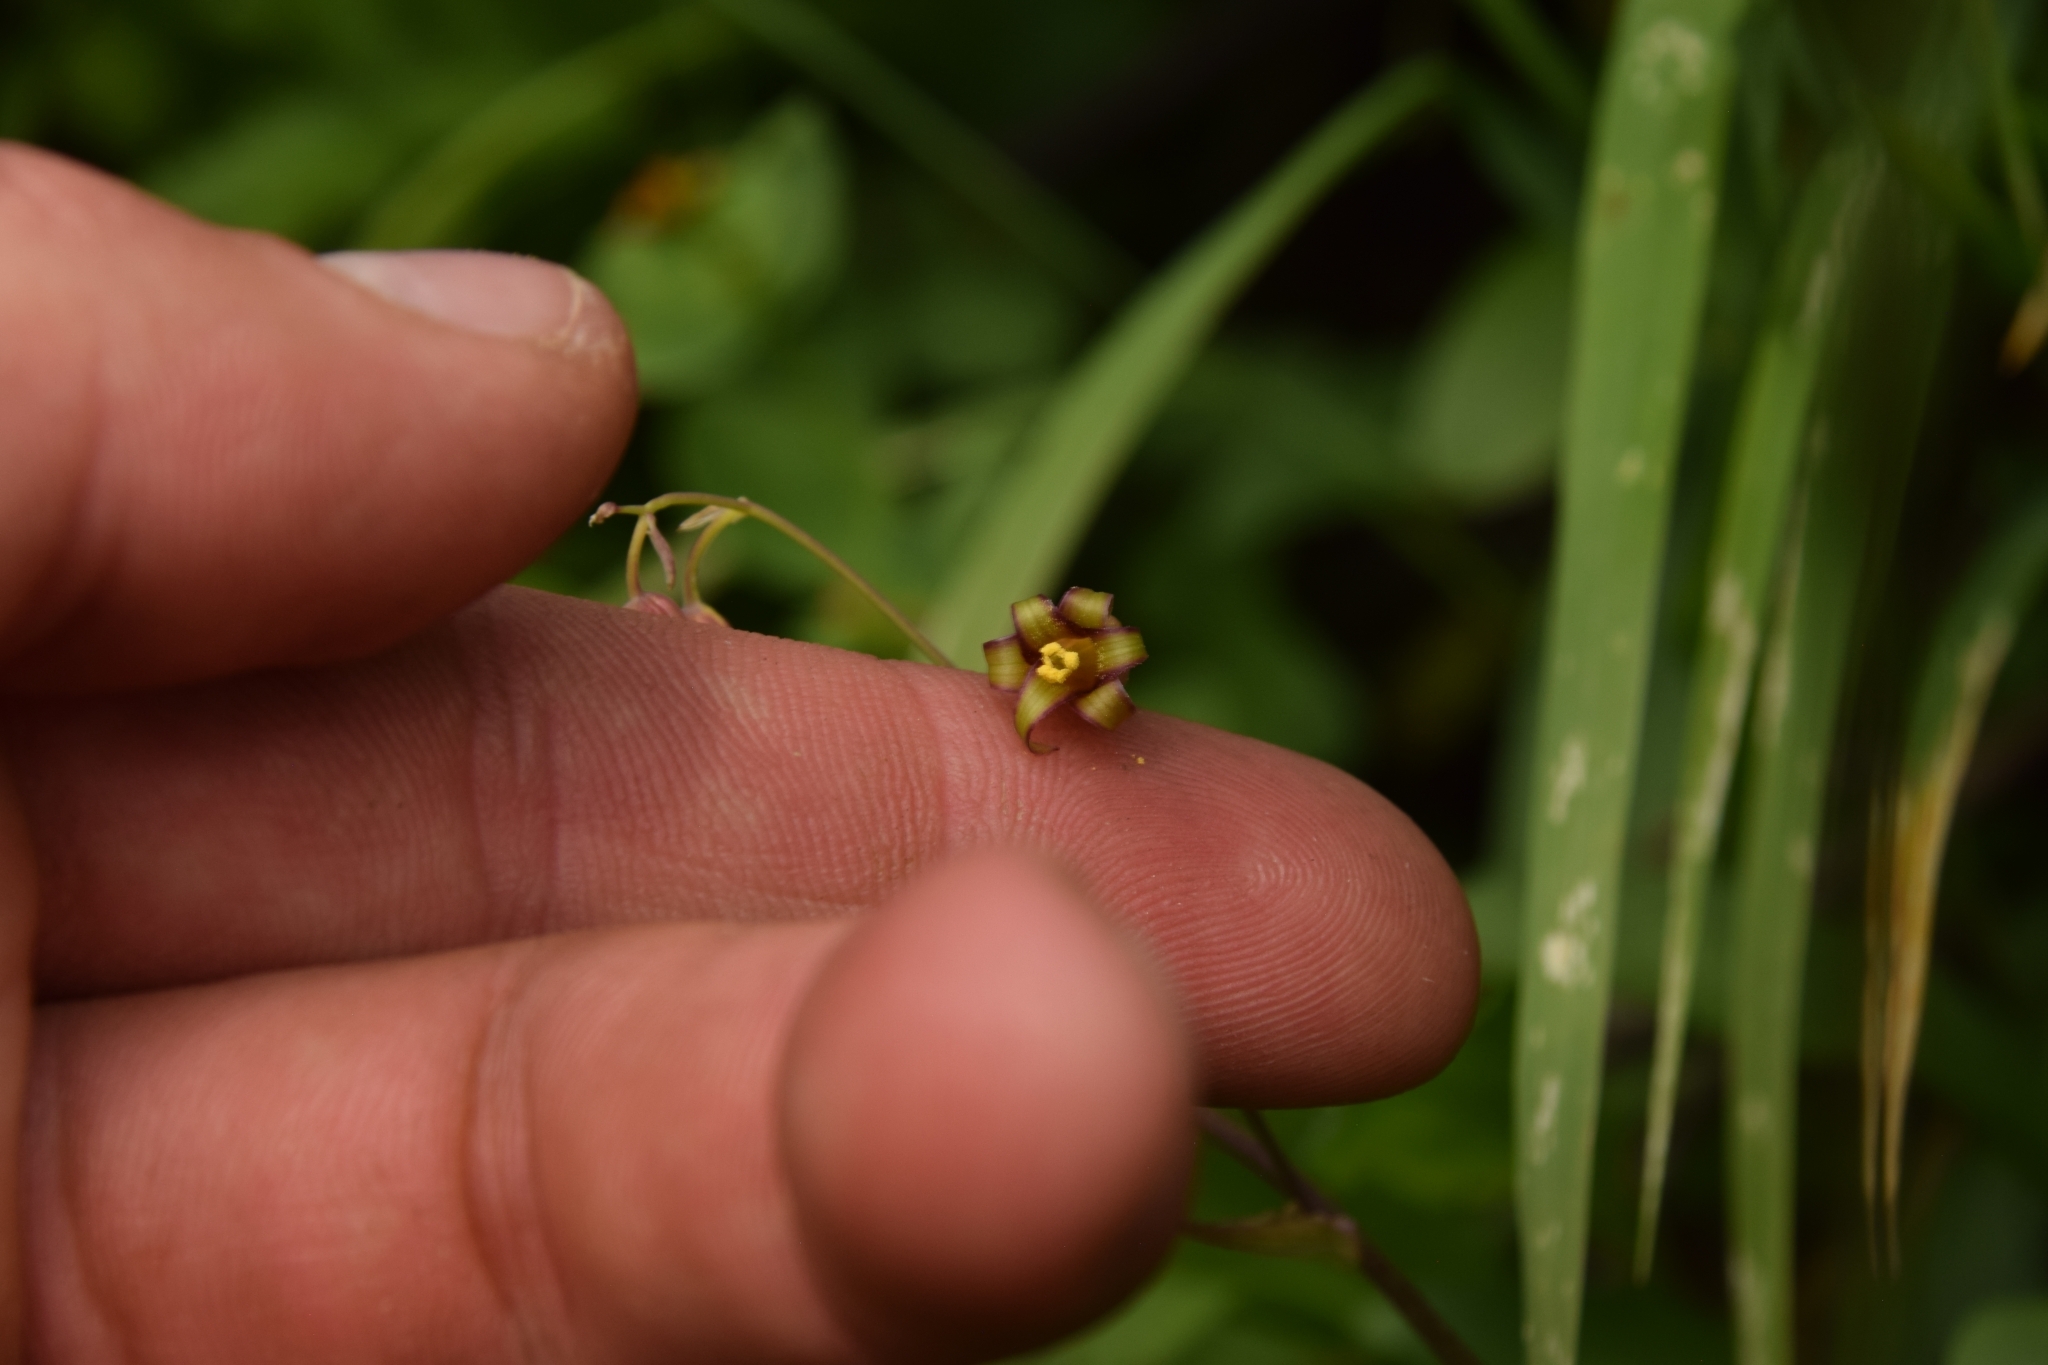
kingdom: Plantae
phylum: Tracheophyta
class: Liliopsida
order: Liliales
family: Melanthiaceae
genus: Anticlea
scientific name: Anticlea occidentalis
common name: Bronze-bells
